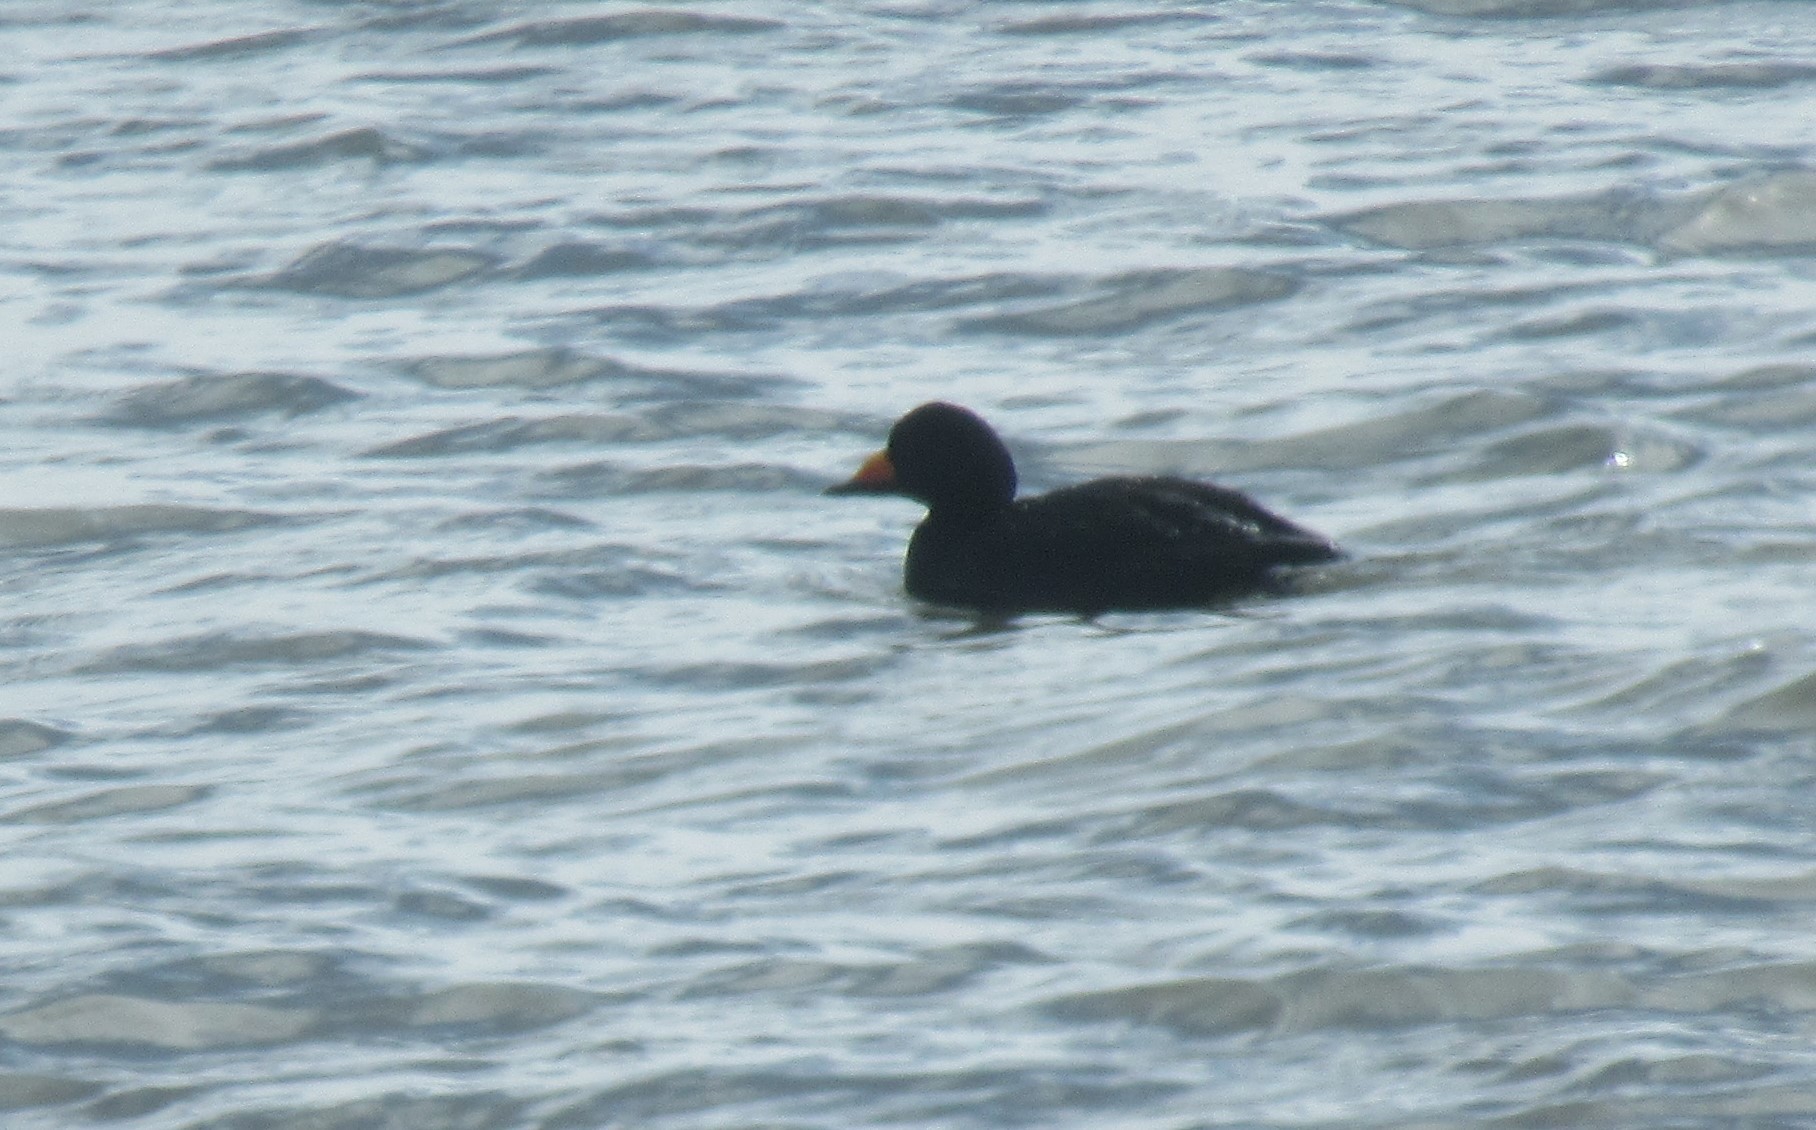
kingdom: Animalia
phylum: Chordata
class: Aves
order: Anseriformes
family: Anatidae
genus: Melanitta
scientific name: Melanitta americana
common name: Black scoter
